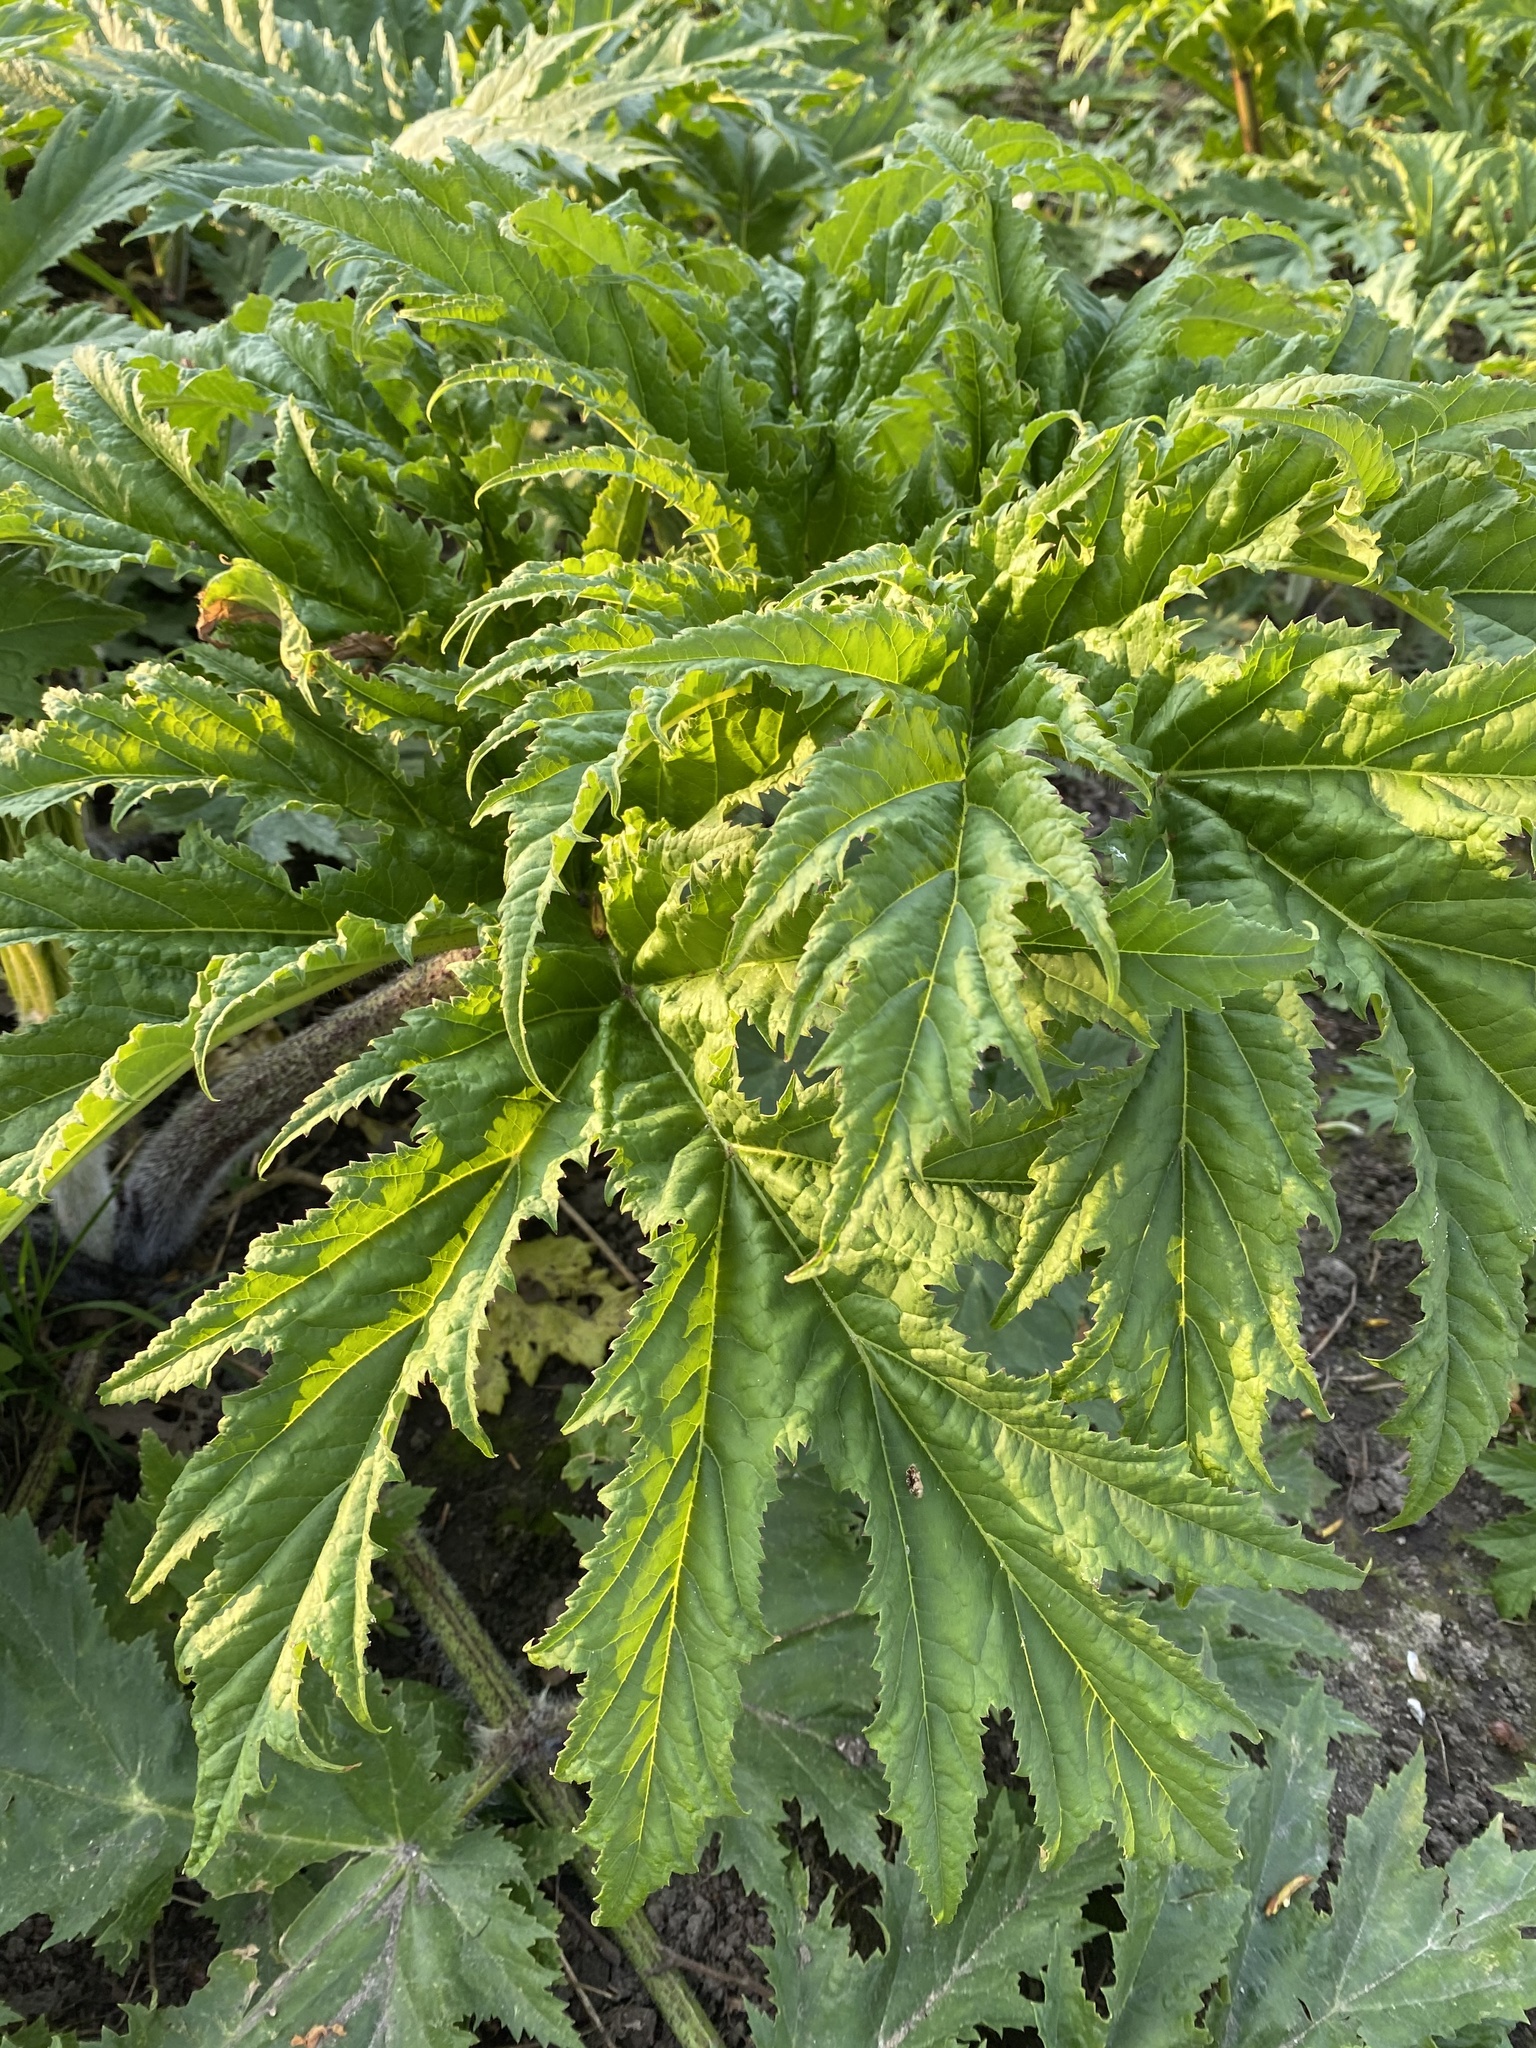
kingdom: Plantae
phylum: Tracheophyta
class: Magnoliopsida
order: Apiales
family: Apiaceae
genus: Heracleum
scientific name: Heracleum mantegazzianum
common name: Giant hogweed
